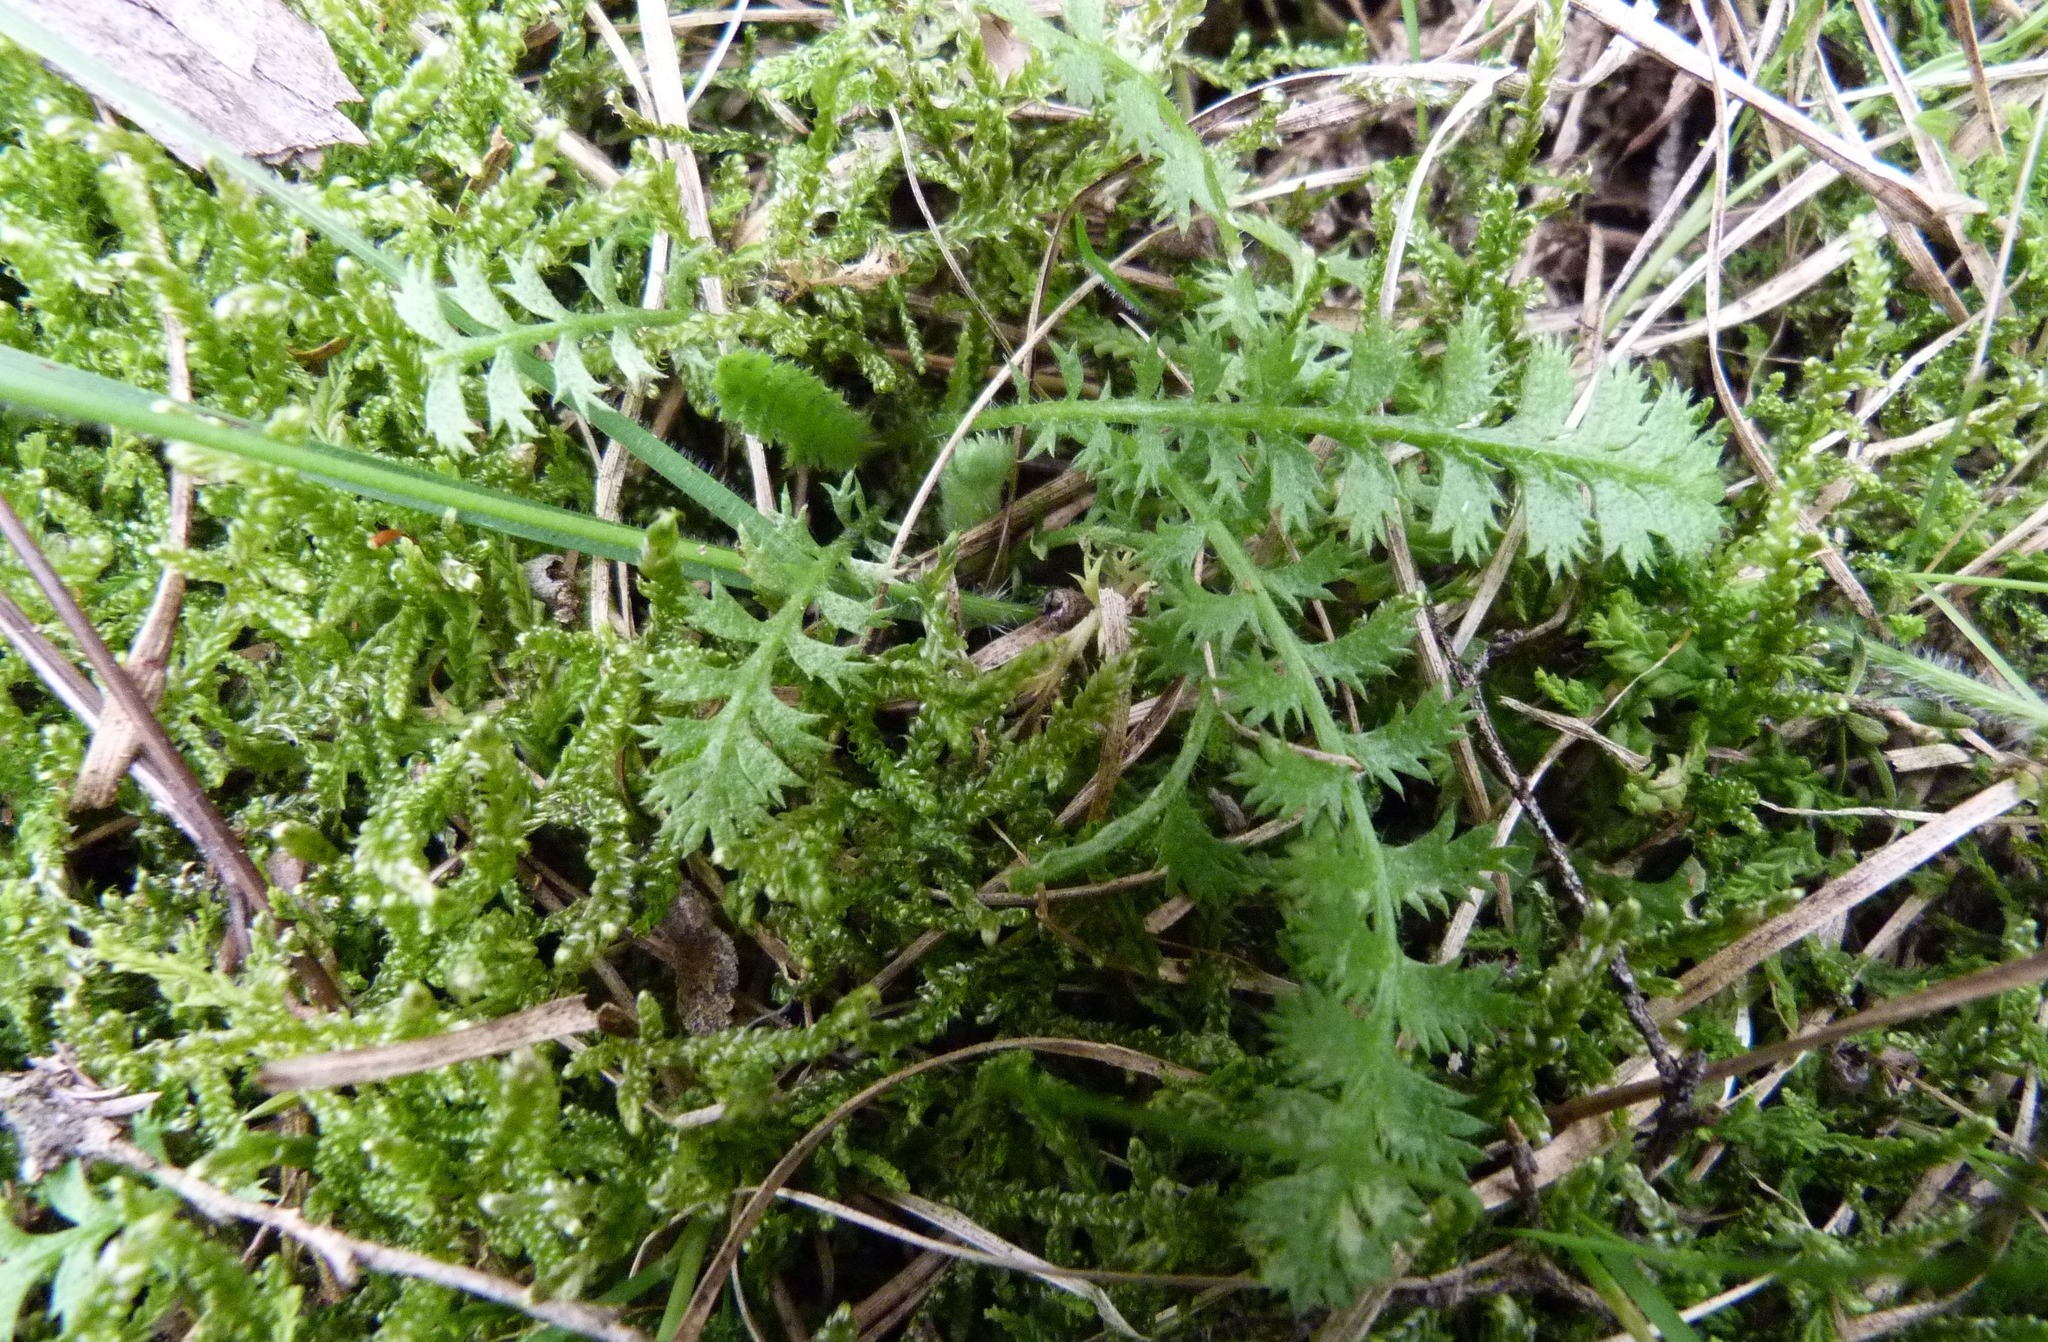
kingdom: Plantae
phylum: Tracheophyta
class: Magnoliopsida
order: Asterales
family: Asteraceae
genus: Leptinella
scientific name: Leptinella squalida
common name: New zealand brass-buttons
